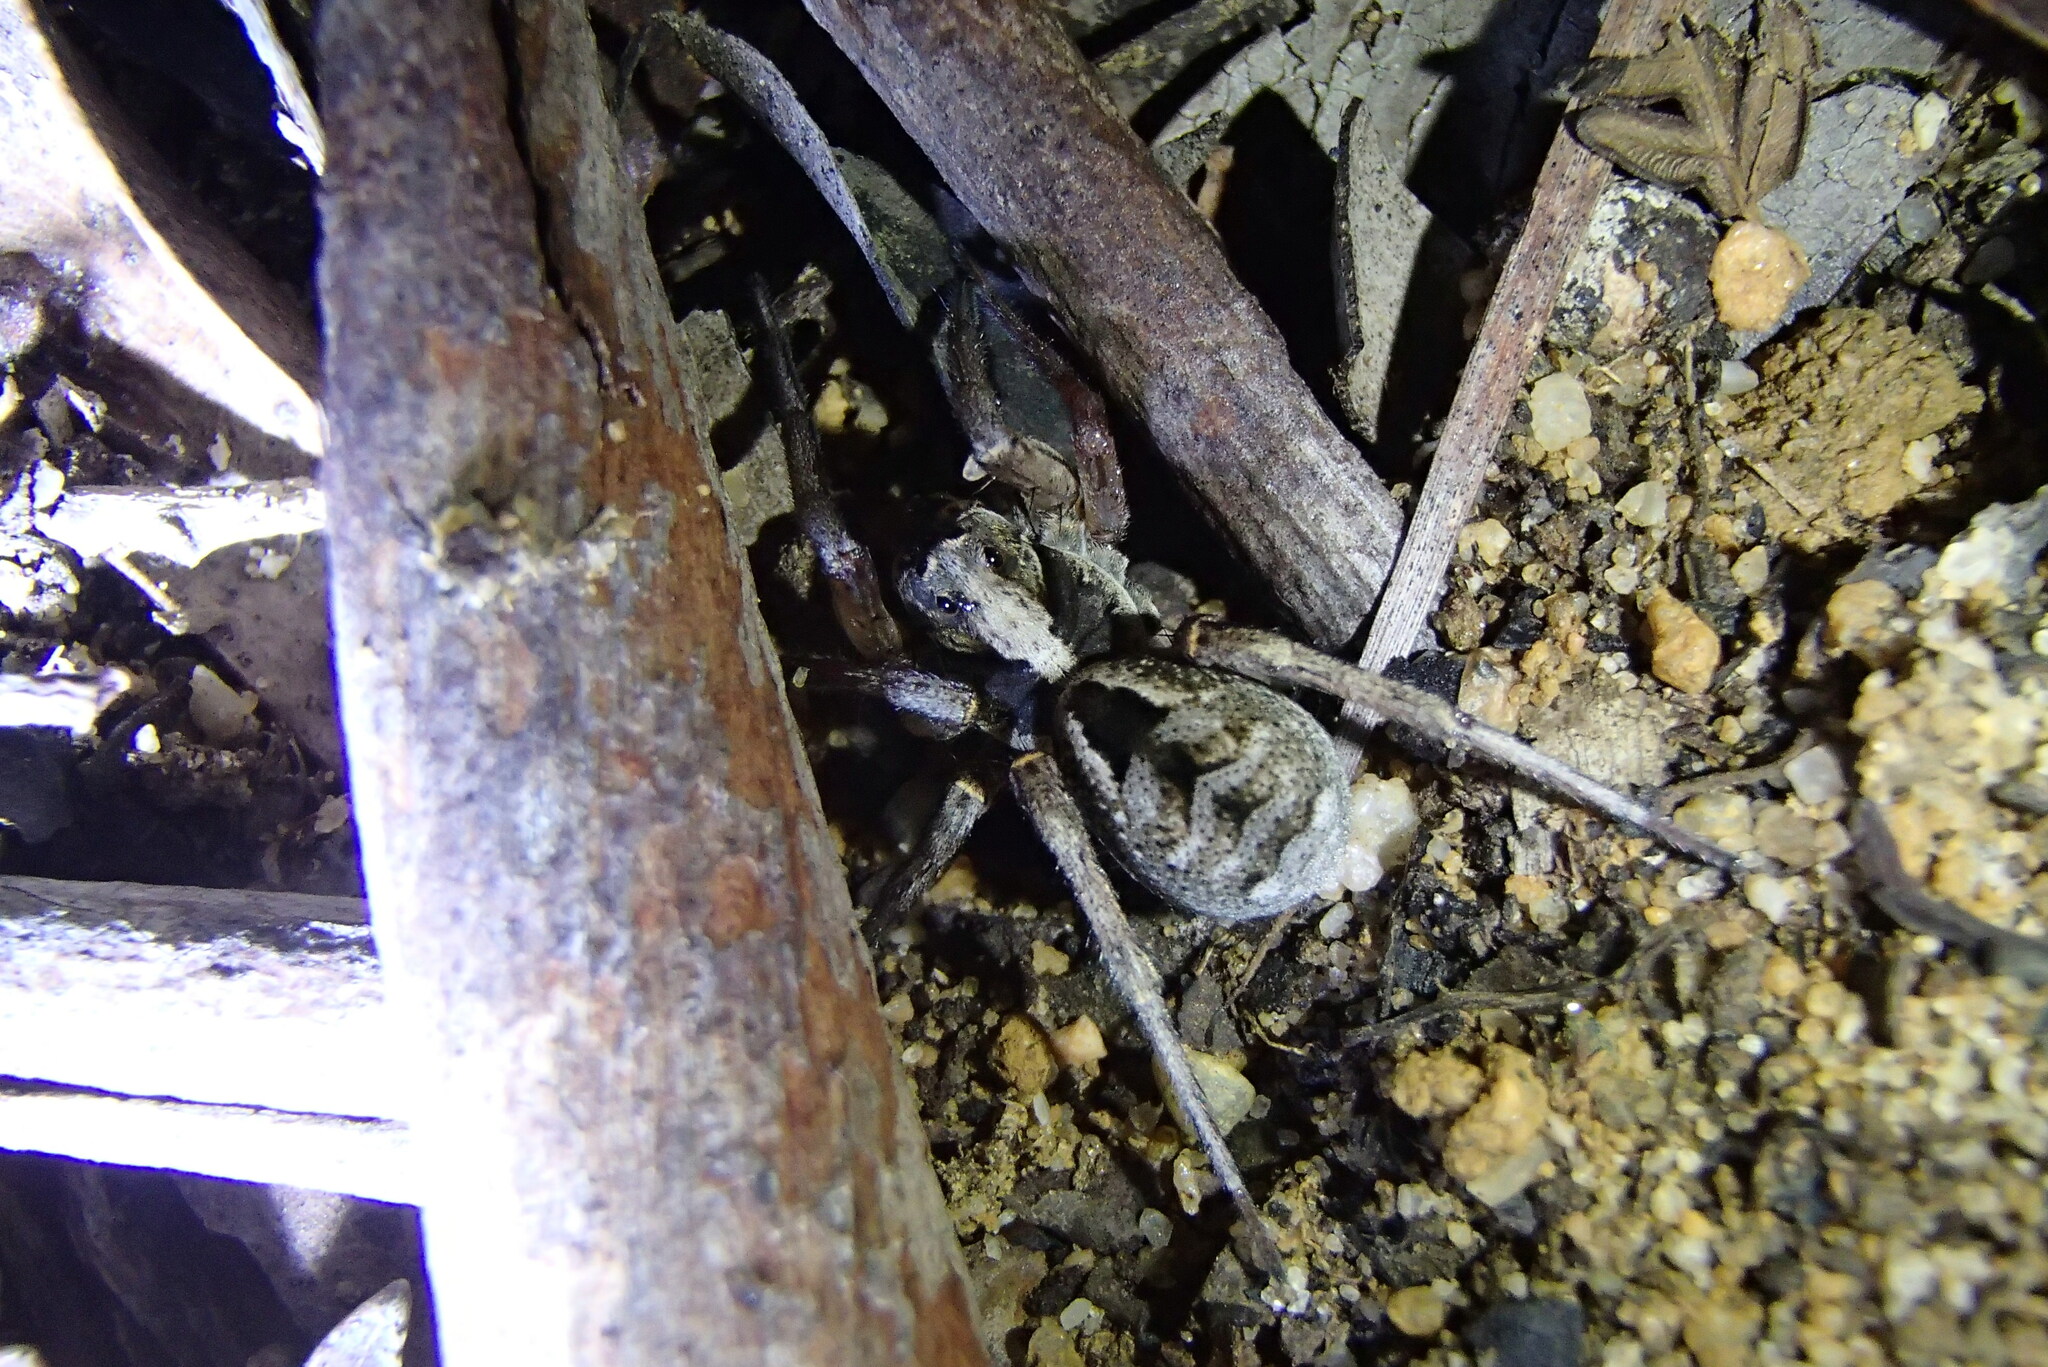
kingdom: Animalia
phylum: Arthropoda
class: Arachnida
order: Araneae
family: Lycosidae
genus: Venator
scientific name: Venator spenceri
